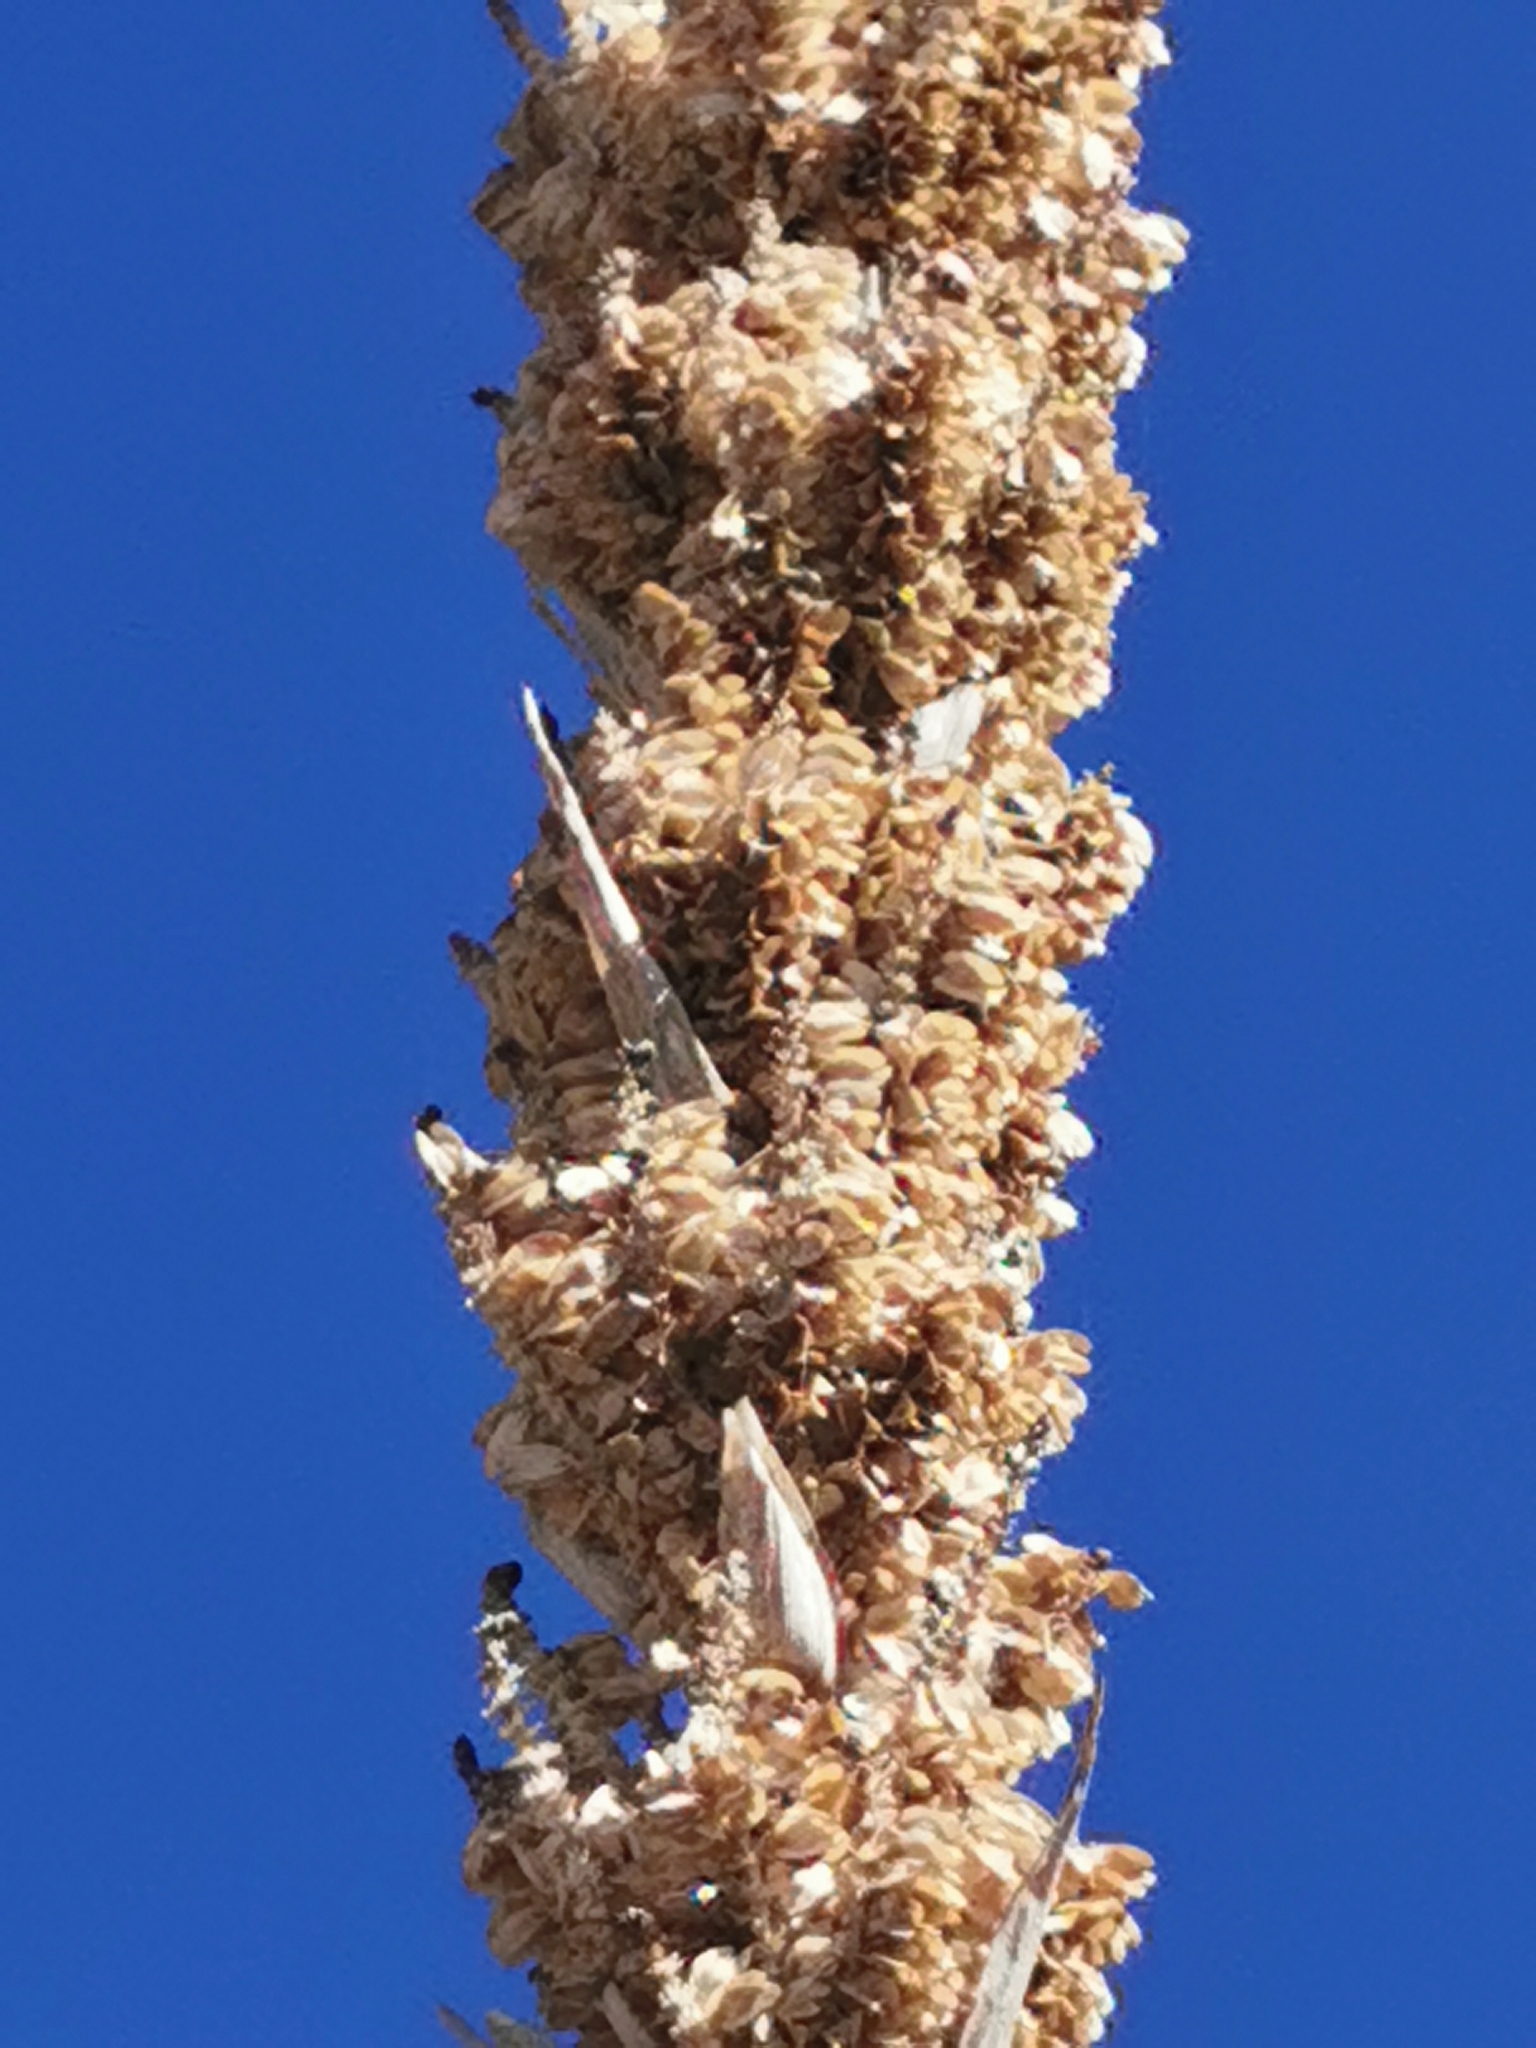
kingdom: Plantae
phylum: Tracheophyta
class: Liliopsida
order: Asparagales
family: Asparagaceae
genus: Dasylirion
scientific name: Dasylirion durangense
